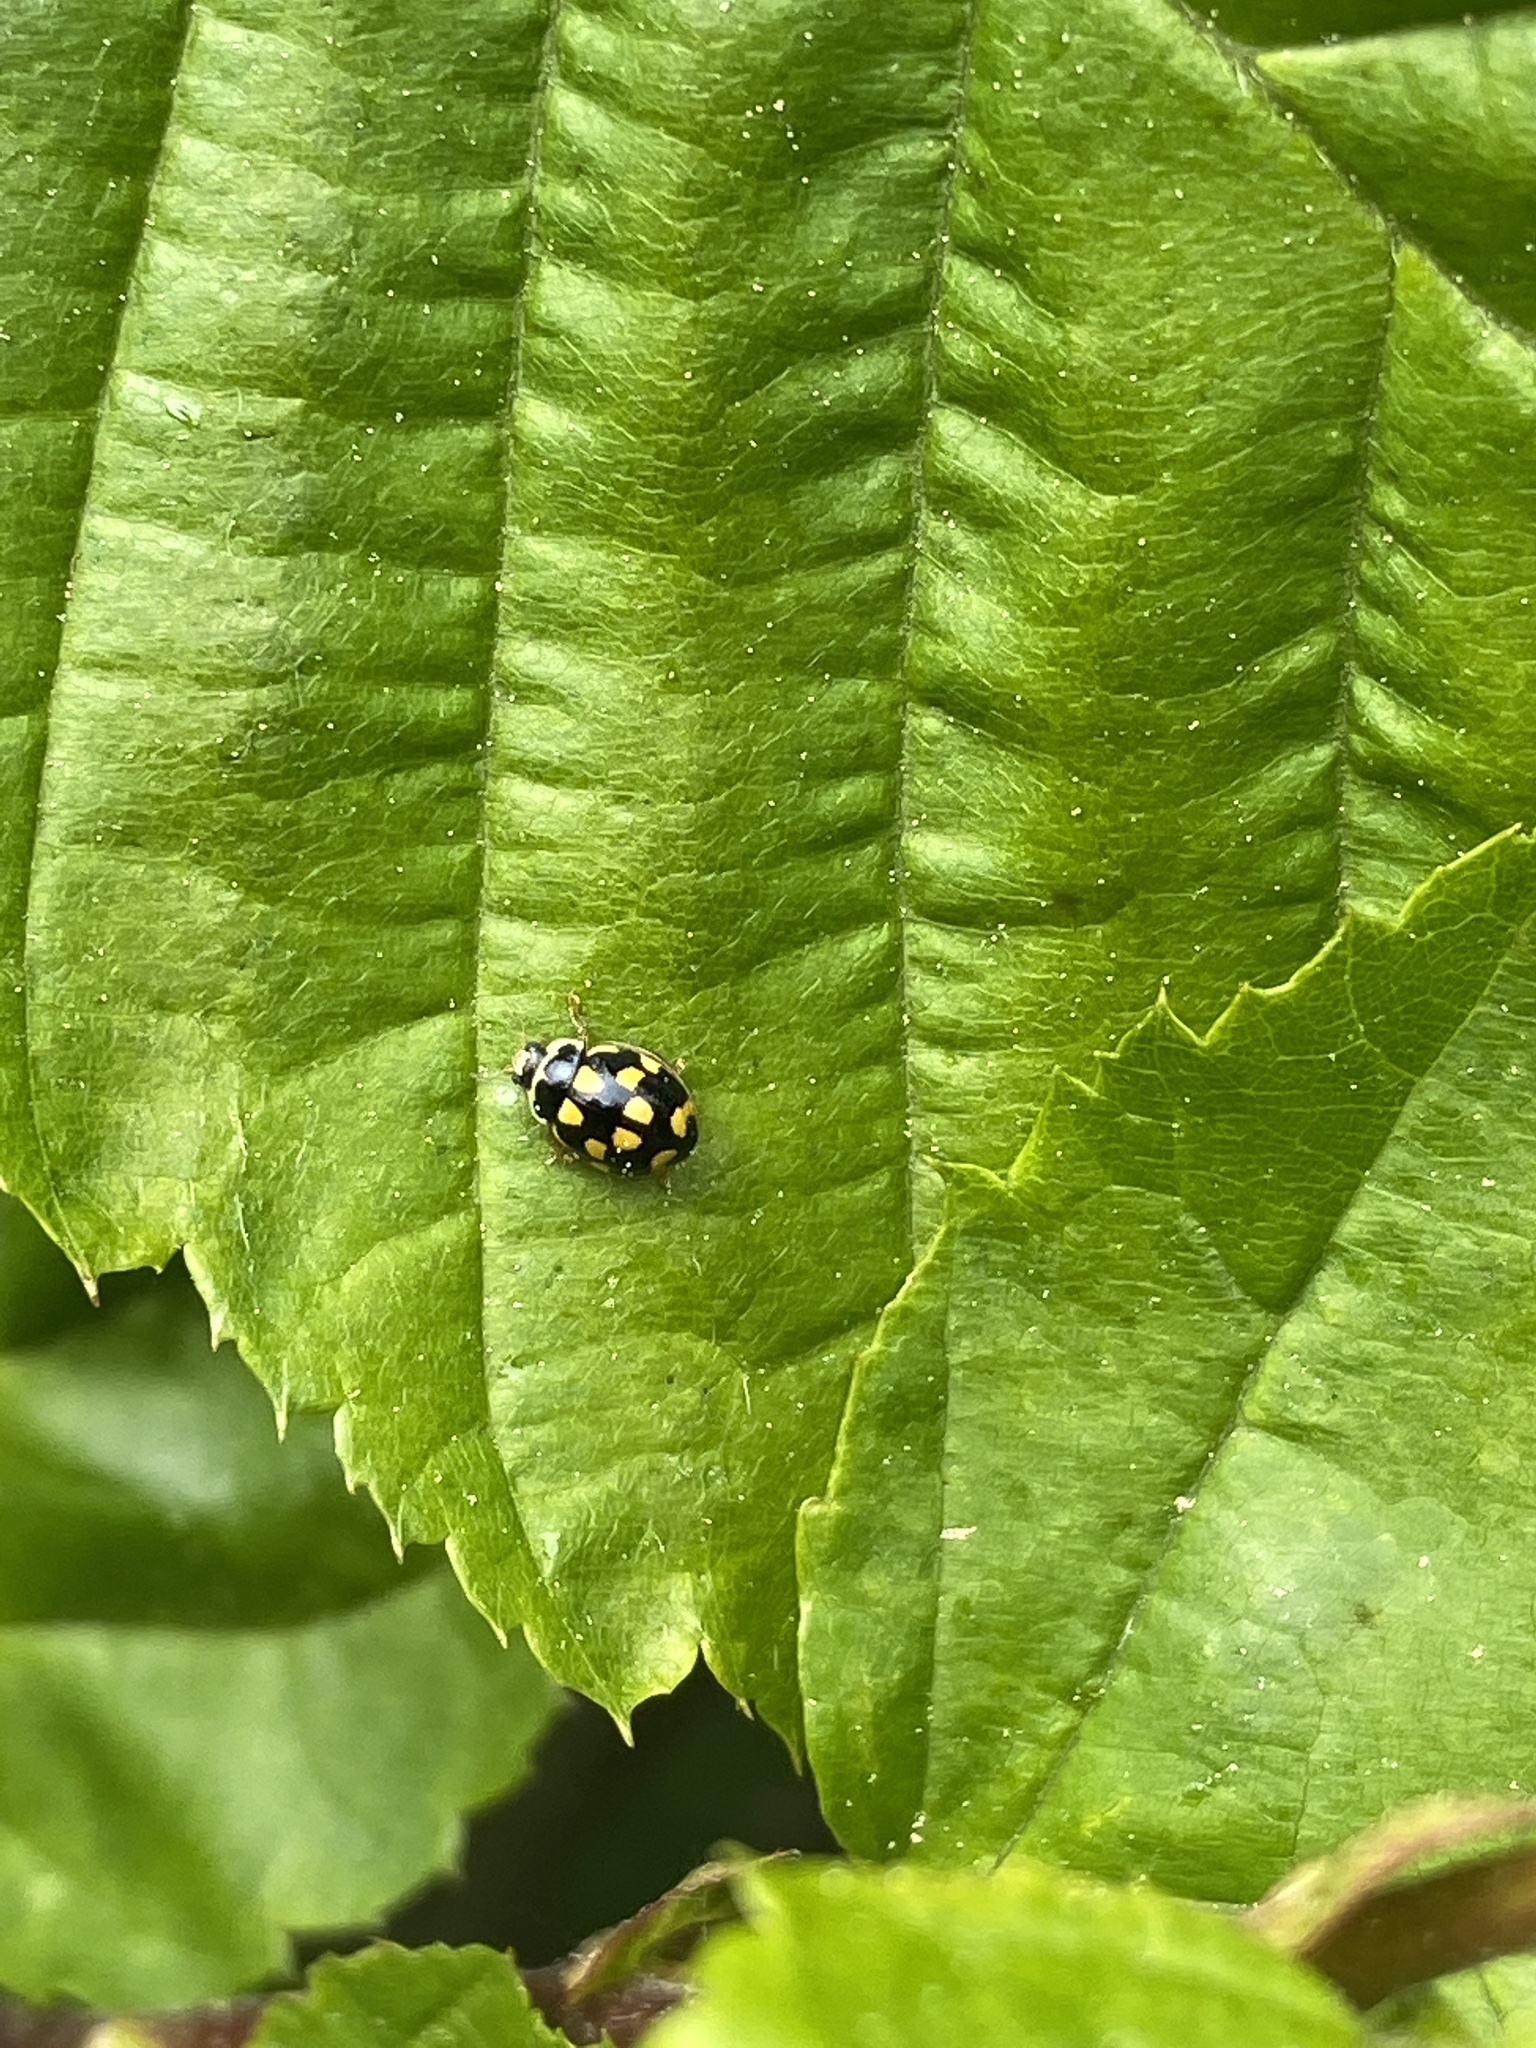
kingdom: Animalia
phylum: Arthropoda
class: Insecta
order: Coleoptera
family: Coccinellidae
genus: Propylaea
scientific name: Propylaea quatuordecimpunctata
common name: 14-spotted ladybird beetle
